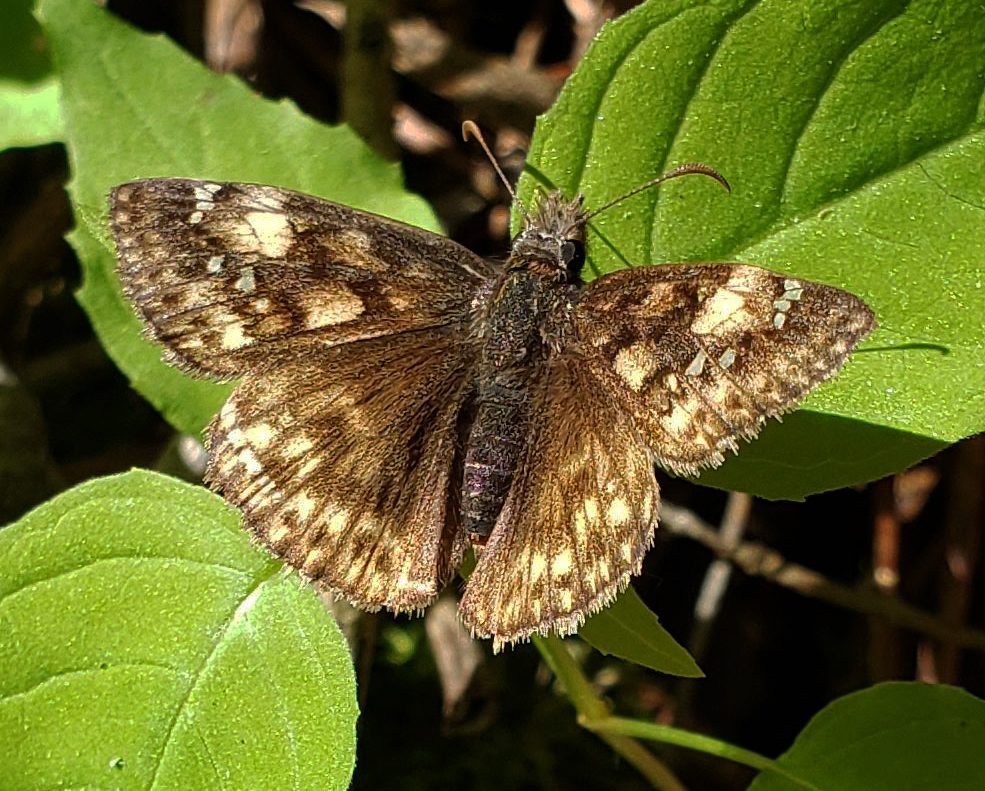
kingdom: Animalia
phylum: Arthropoda
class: Insecta
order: Lepidoptera
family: Hesperiidae
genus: Erynnis
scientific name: Erynnis juvenalis
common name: Juvenal's duskywing
